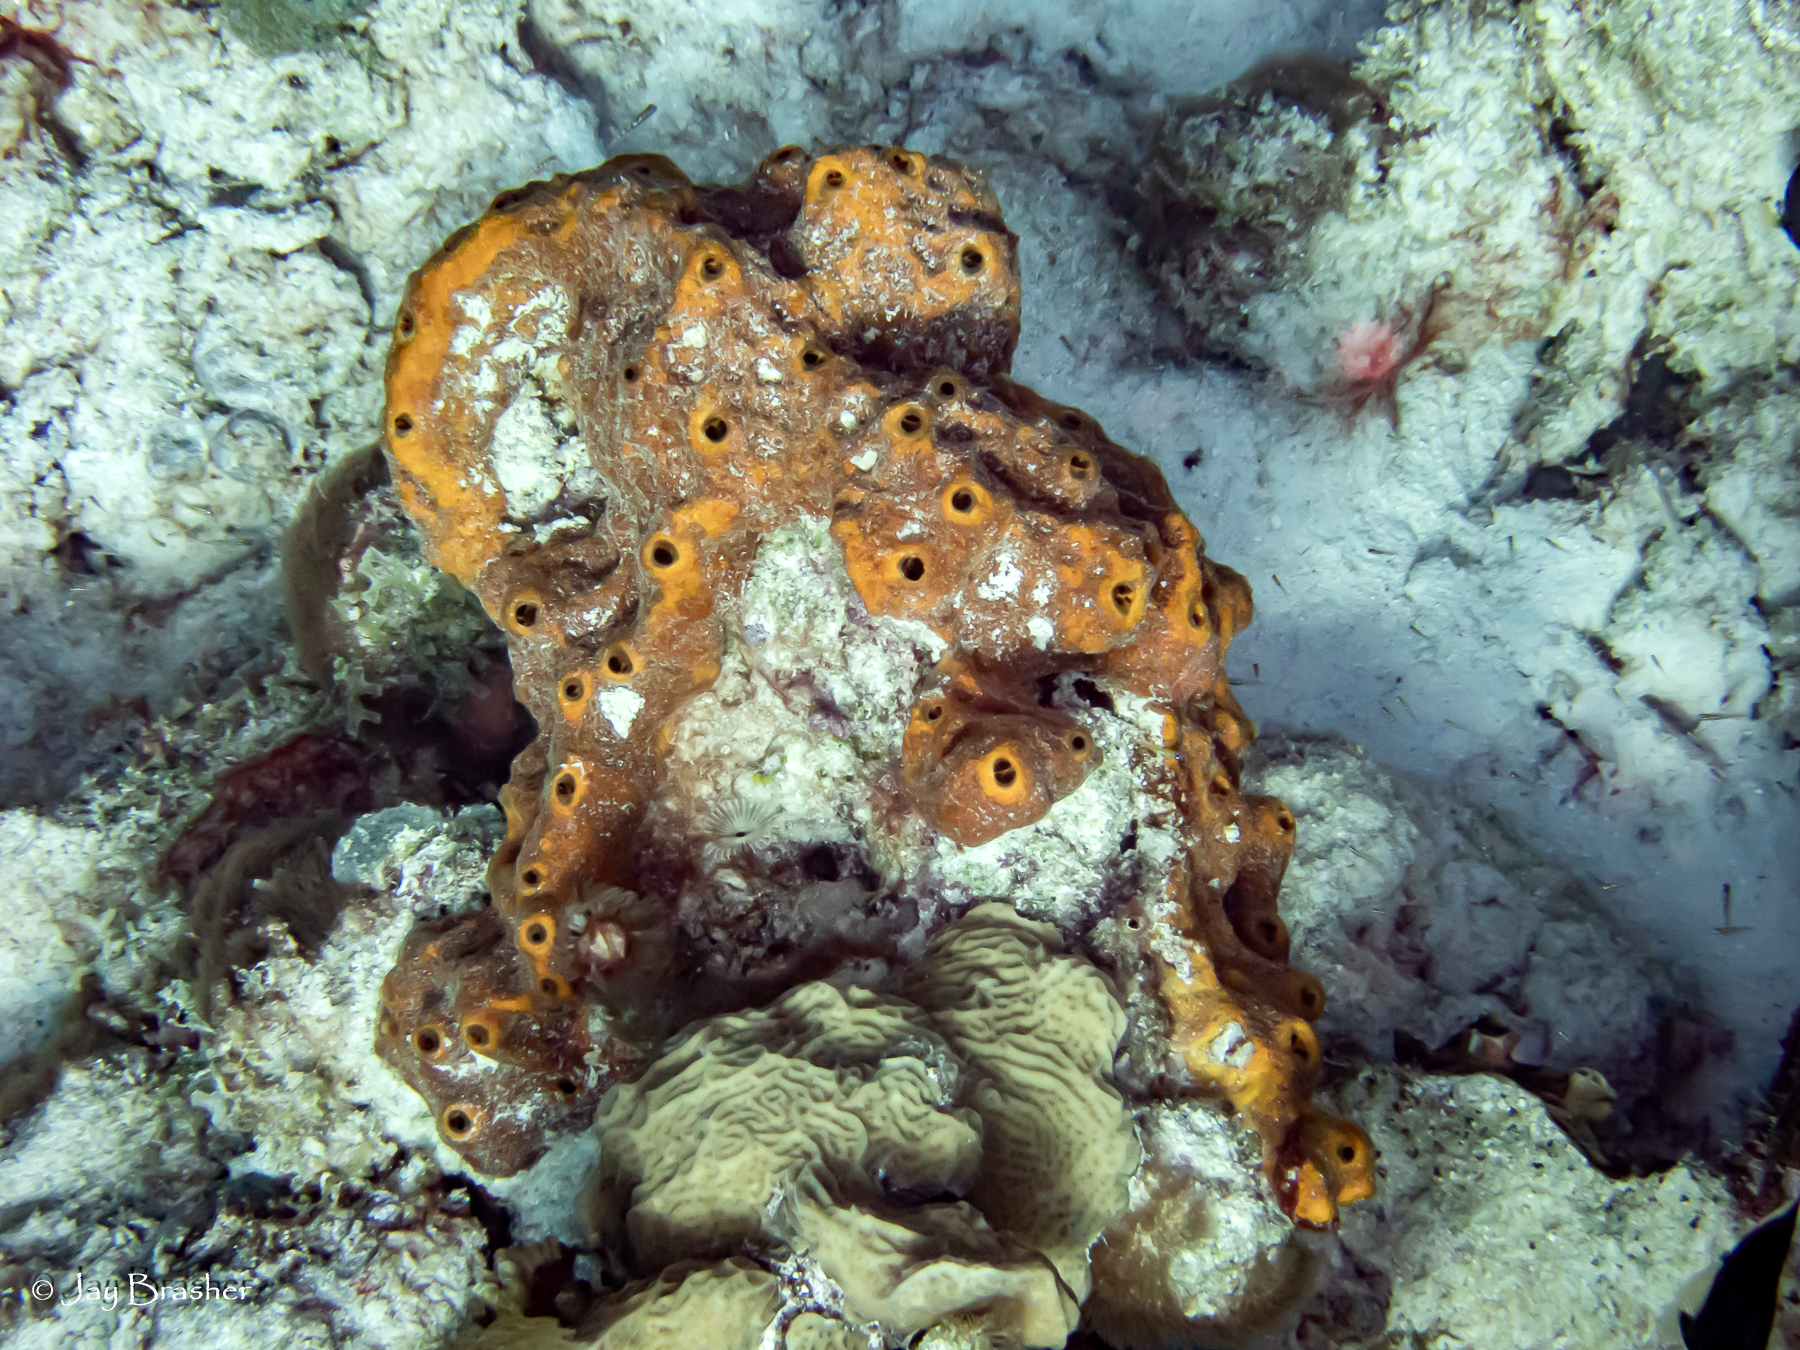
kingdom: Animalia
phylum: Porifera
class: Demospongiae
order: Axinellida
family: Raspailiidae
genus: Ectyoplasia
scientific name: Ectyoplasia ferox
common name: Brown encrusting octopus sponge
